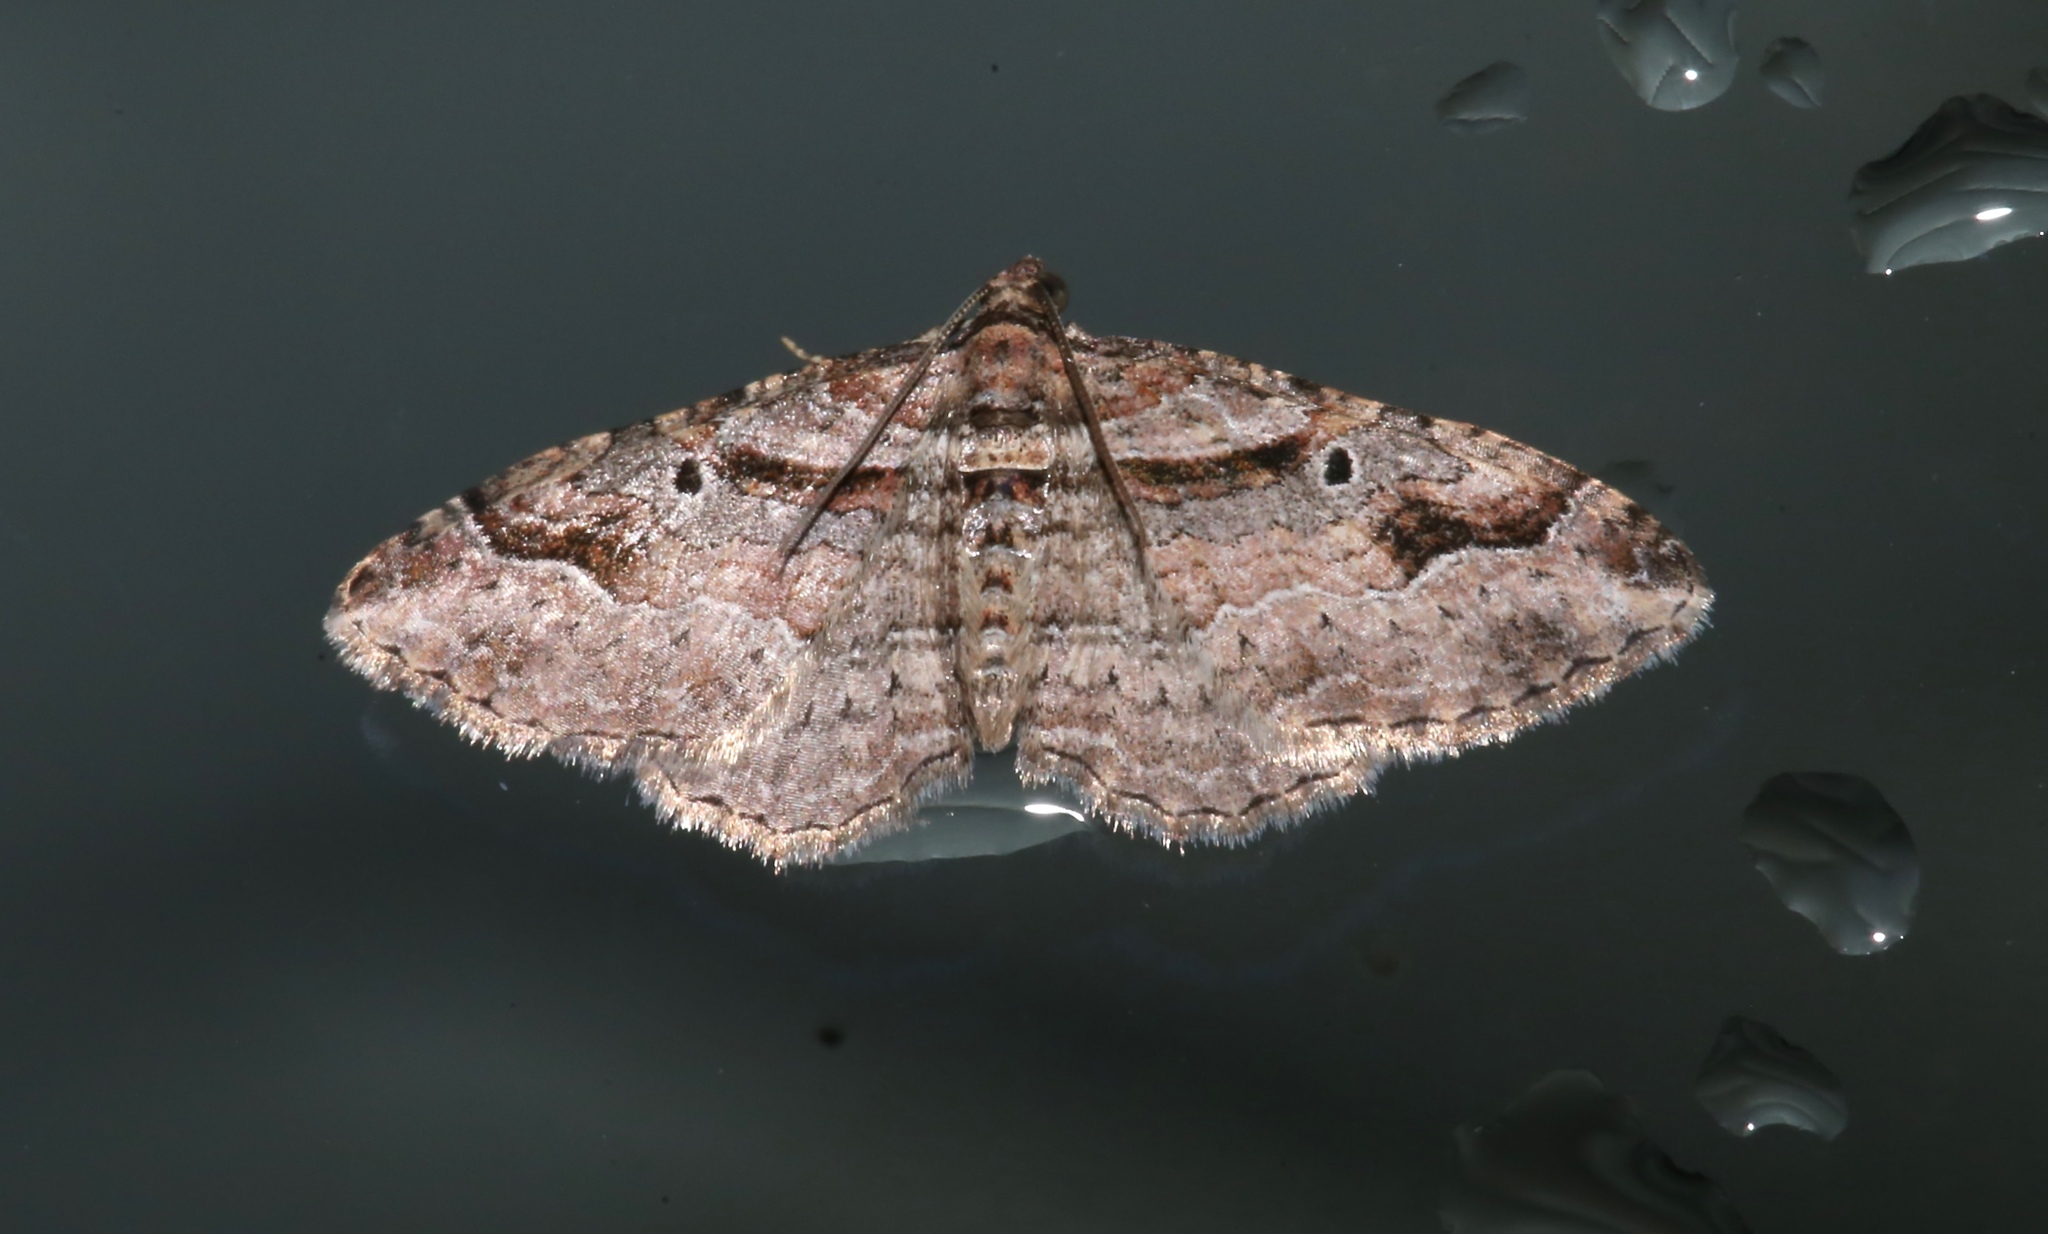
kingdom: Animalia
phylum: Arthropoda
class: Insecta
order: Lepidoptera
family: Geometridae
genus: Costaconvexa
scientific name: Costaconvexa centrostrigaria
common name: Bent-line carpet
